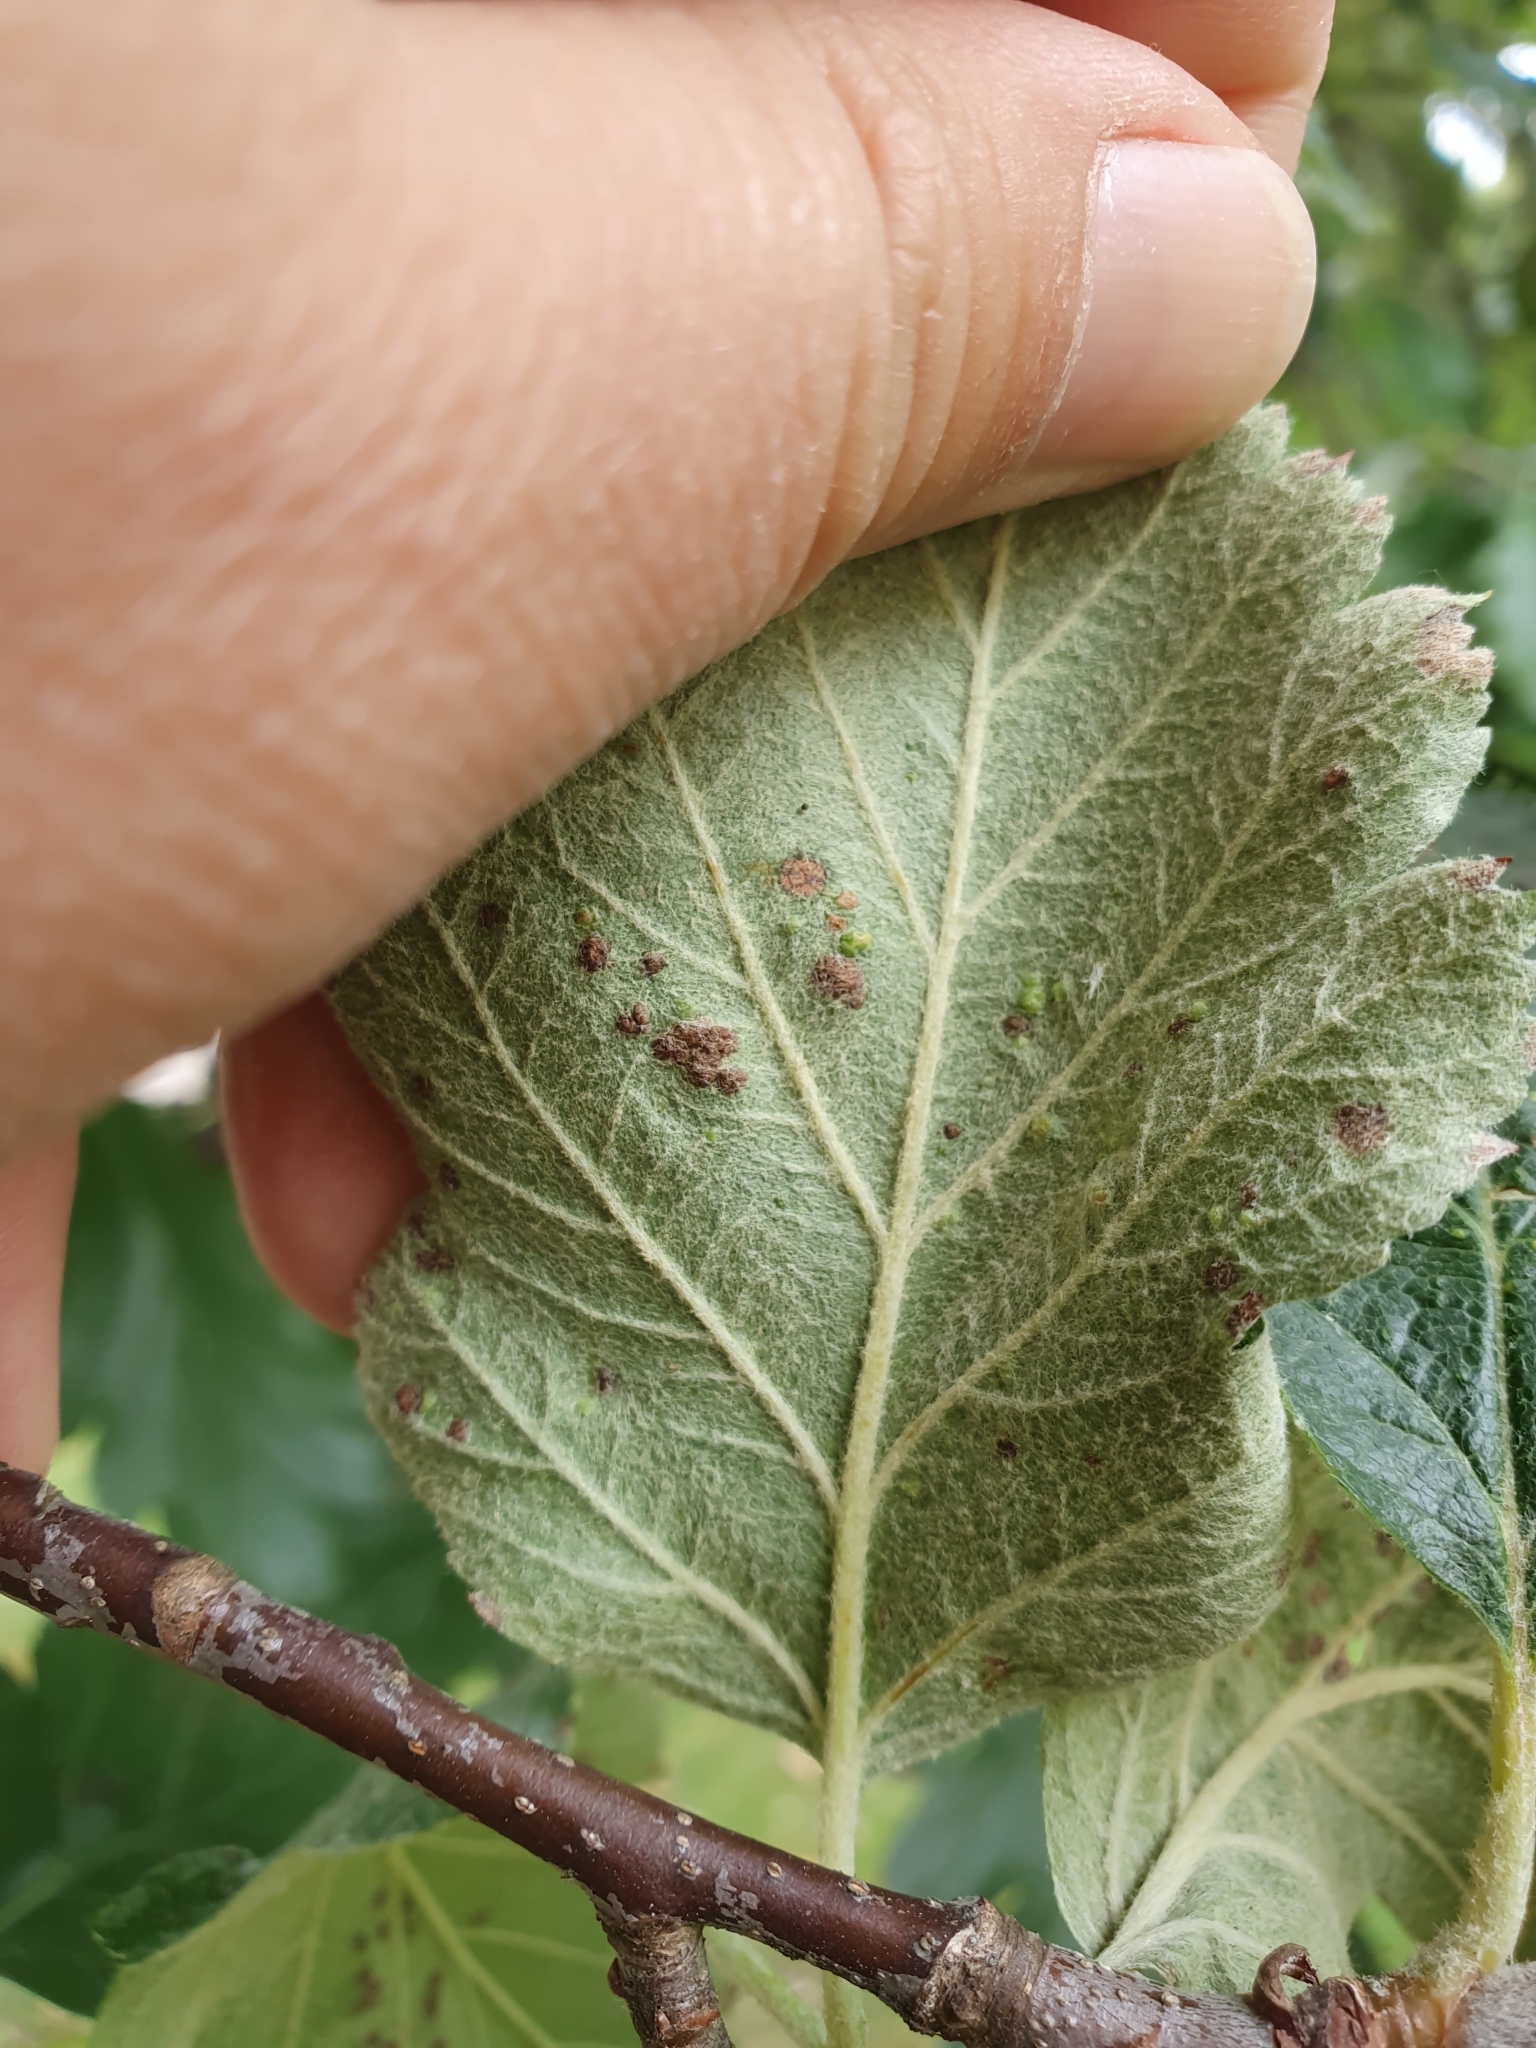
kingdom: Animalia
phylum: Arthropoda
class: Arachnida
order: Trombidiformes
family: Eriophyidae
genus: Eriophyes
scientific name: Eriophyes arianus
